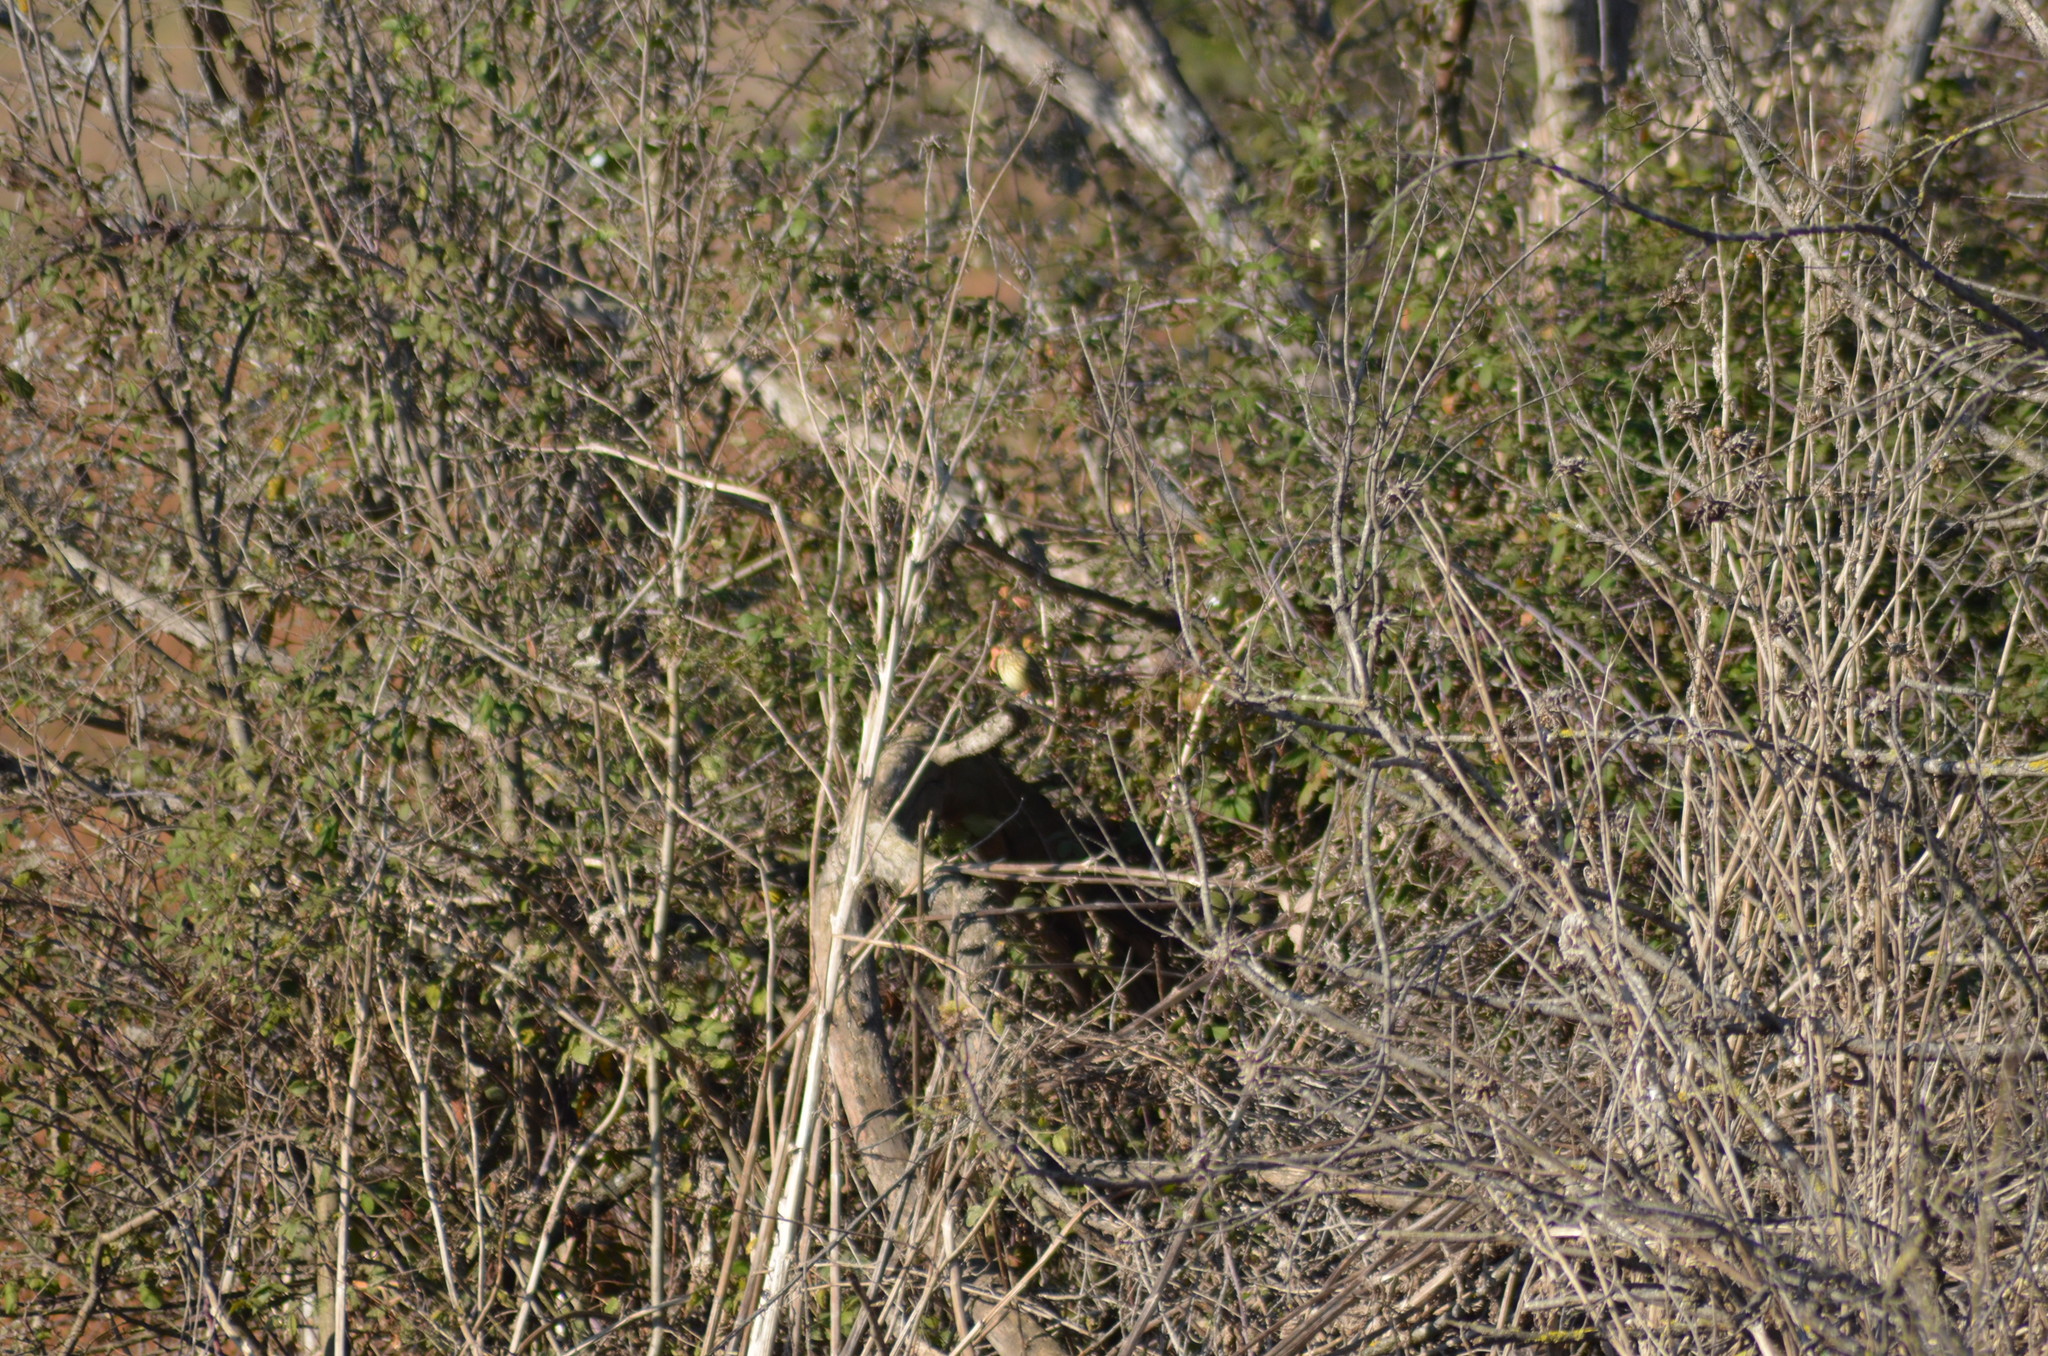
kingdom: Animalia
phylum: Chordata
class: Aves
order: Passeriformes
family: Emberizidae
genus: Emberiza
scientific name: Emberiza calandra
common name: Corn bunting
